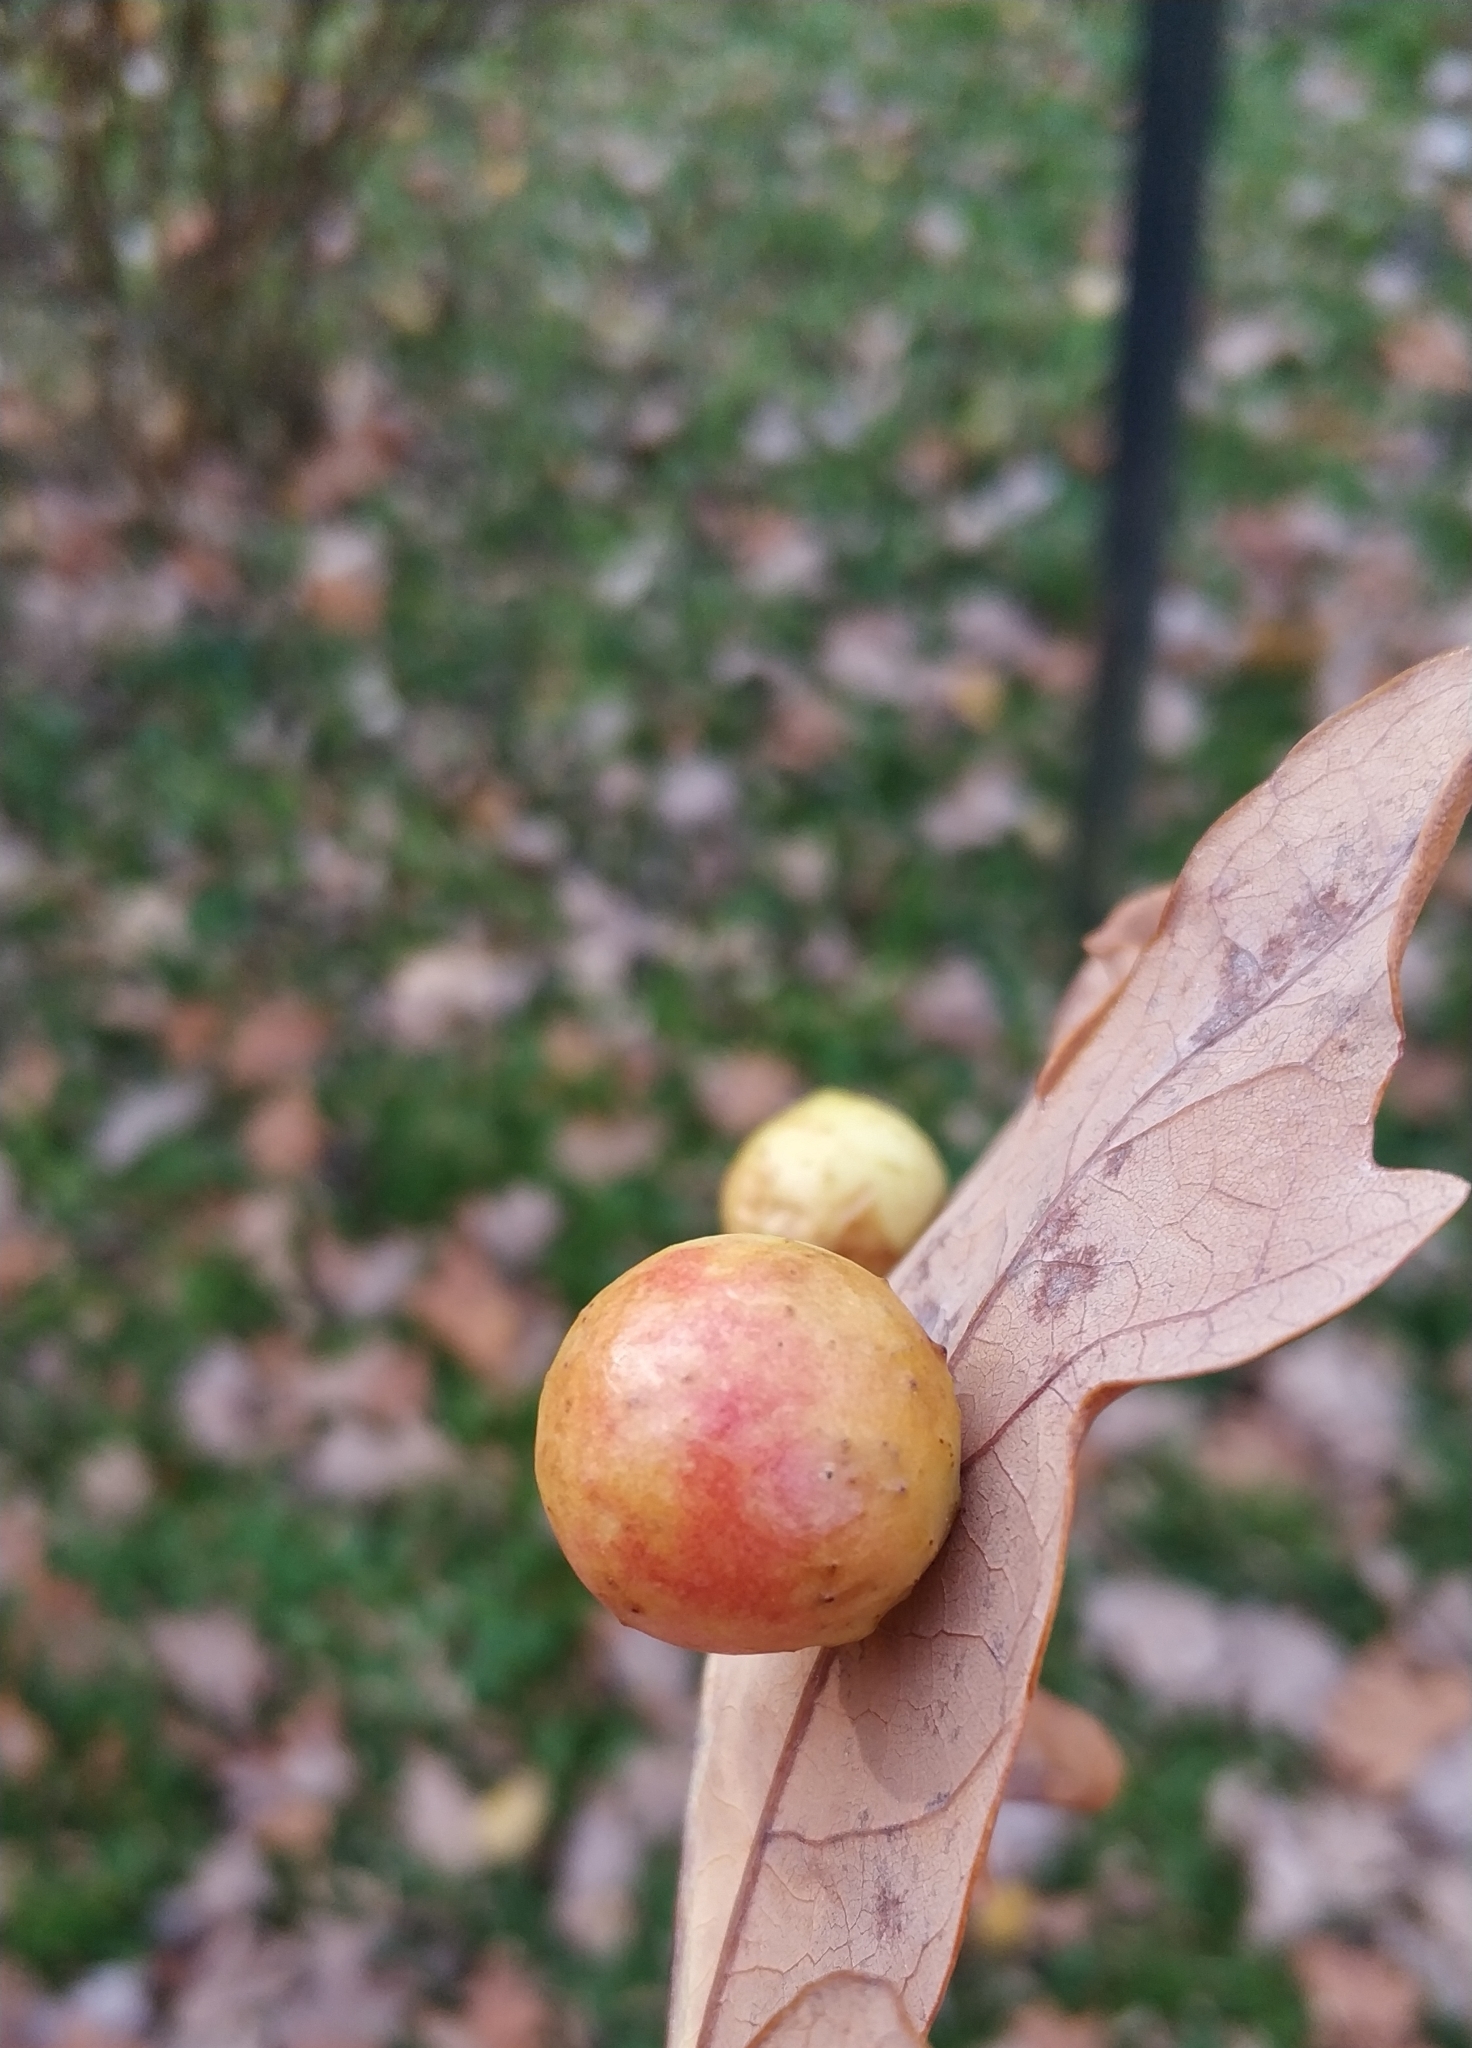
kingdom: Animalia
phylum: Arthropoda
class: Insecta
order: Hymenoptera
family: Cynipidae
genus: Cynips
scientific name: Cynips quercusfolii
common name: Cherry gall
